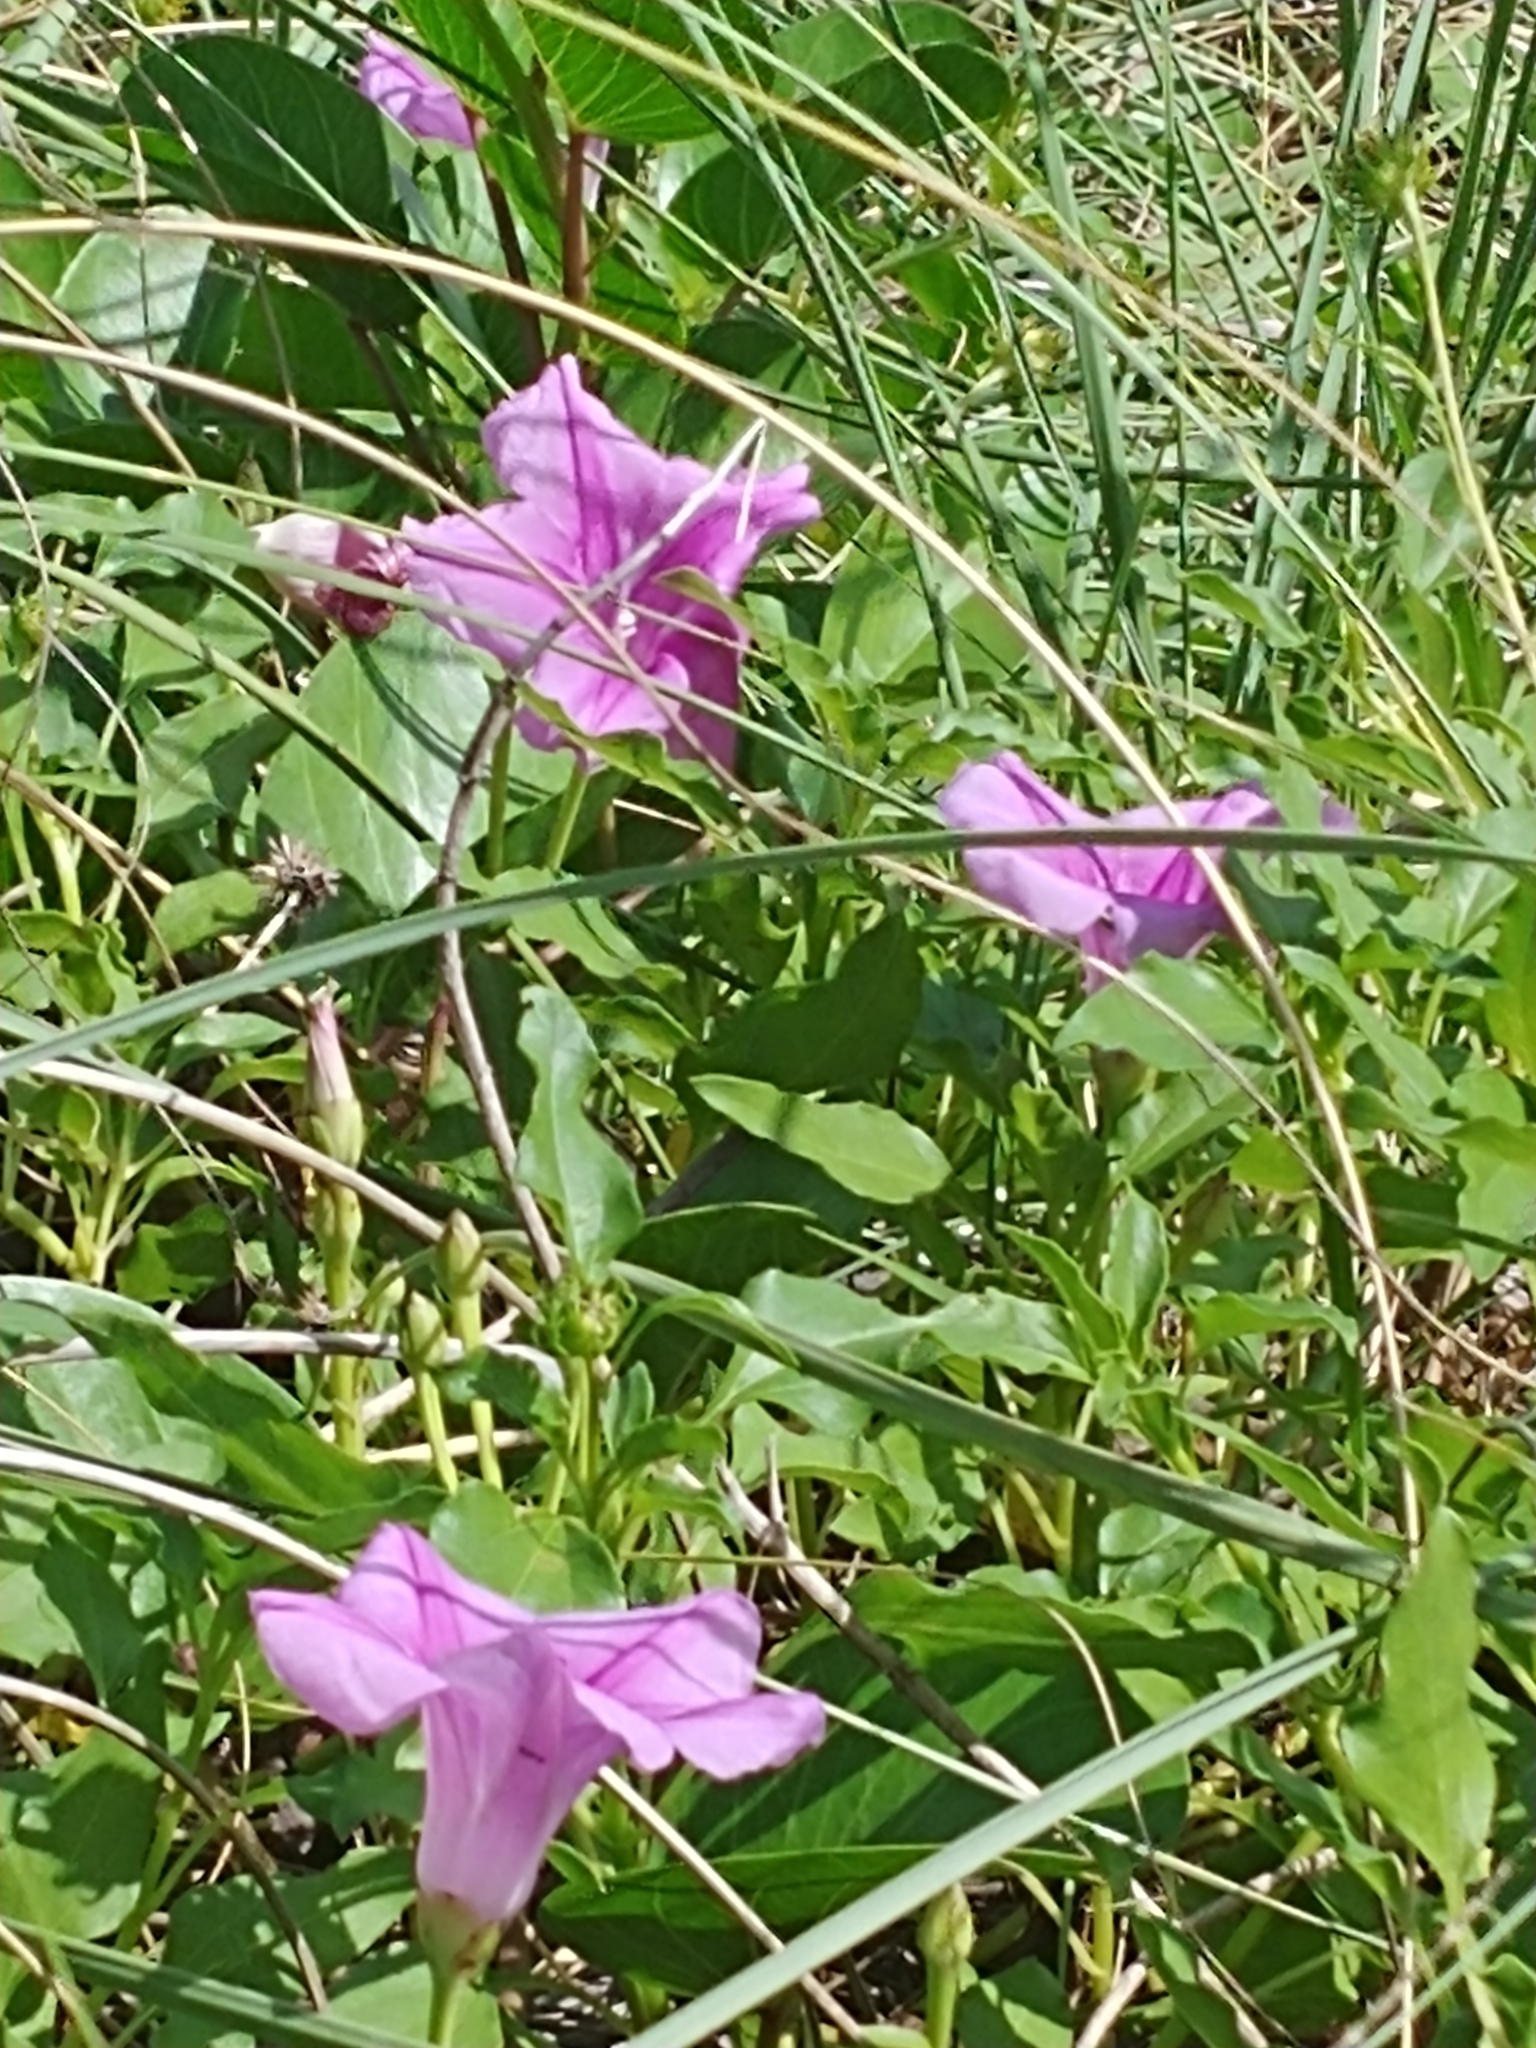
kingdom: Plantae
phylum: Tracheophyta
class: Magnoliopsida
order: Solanales
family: Convolvulaceae
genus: Ipomoea
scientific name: Ipomoea pes-caprae
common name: Beach morning glory
